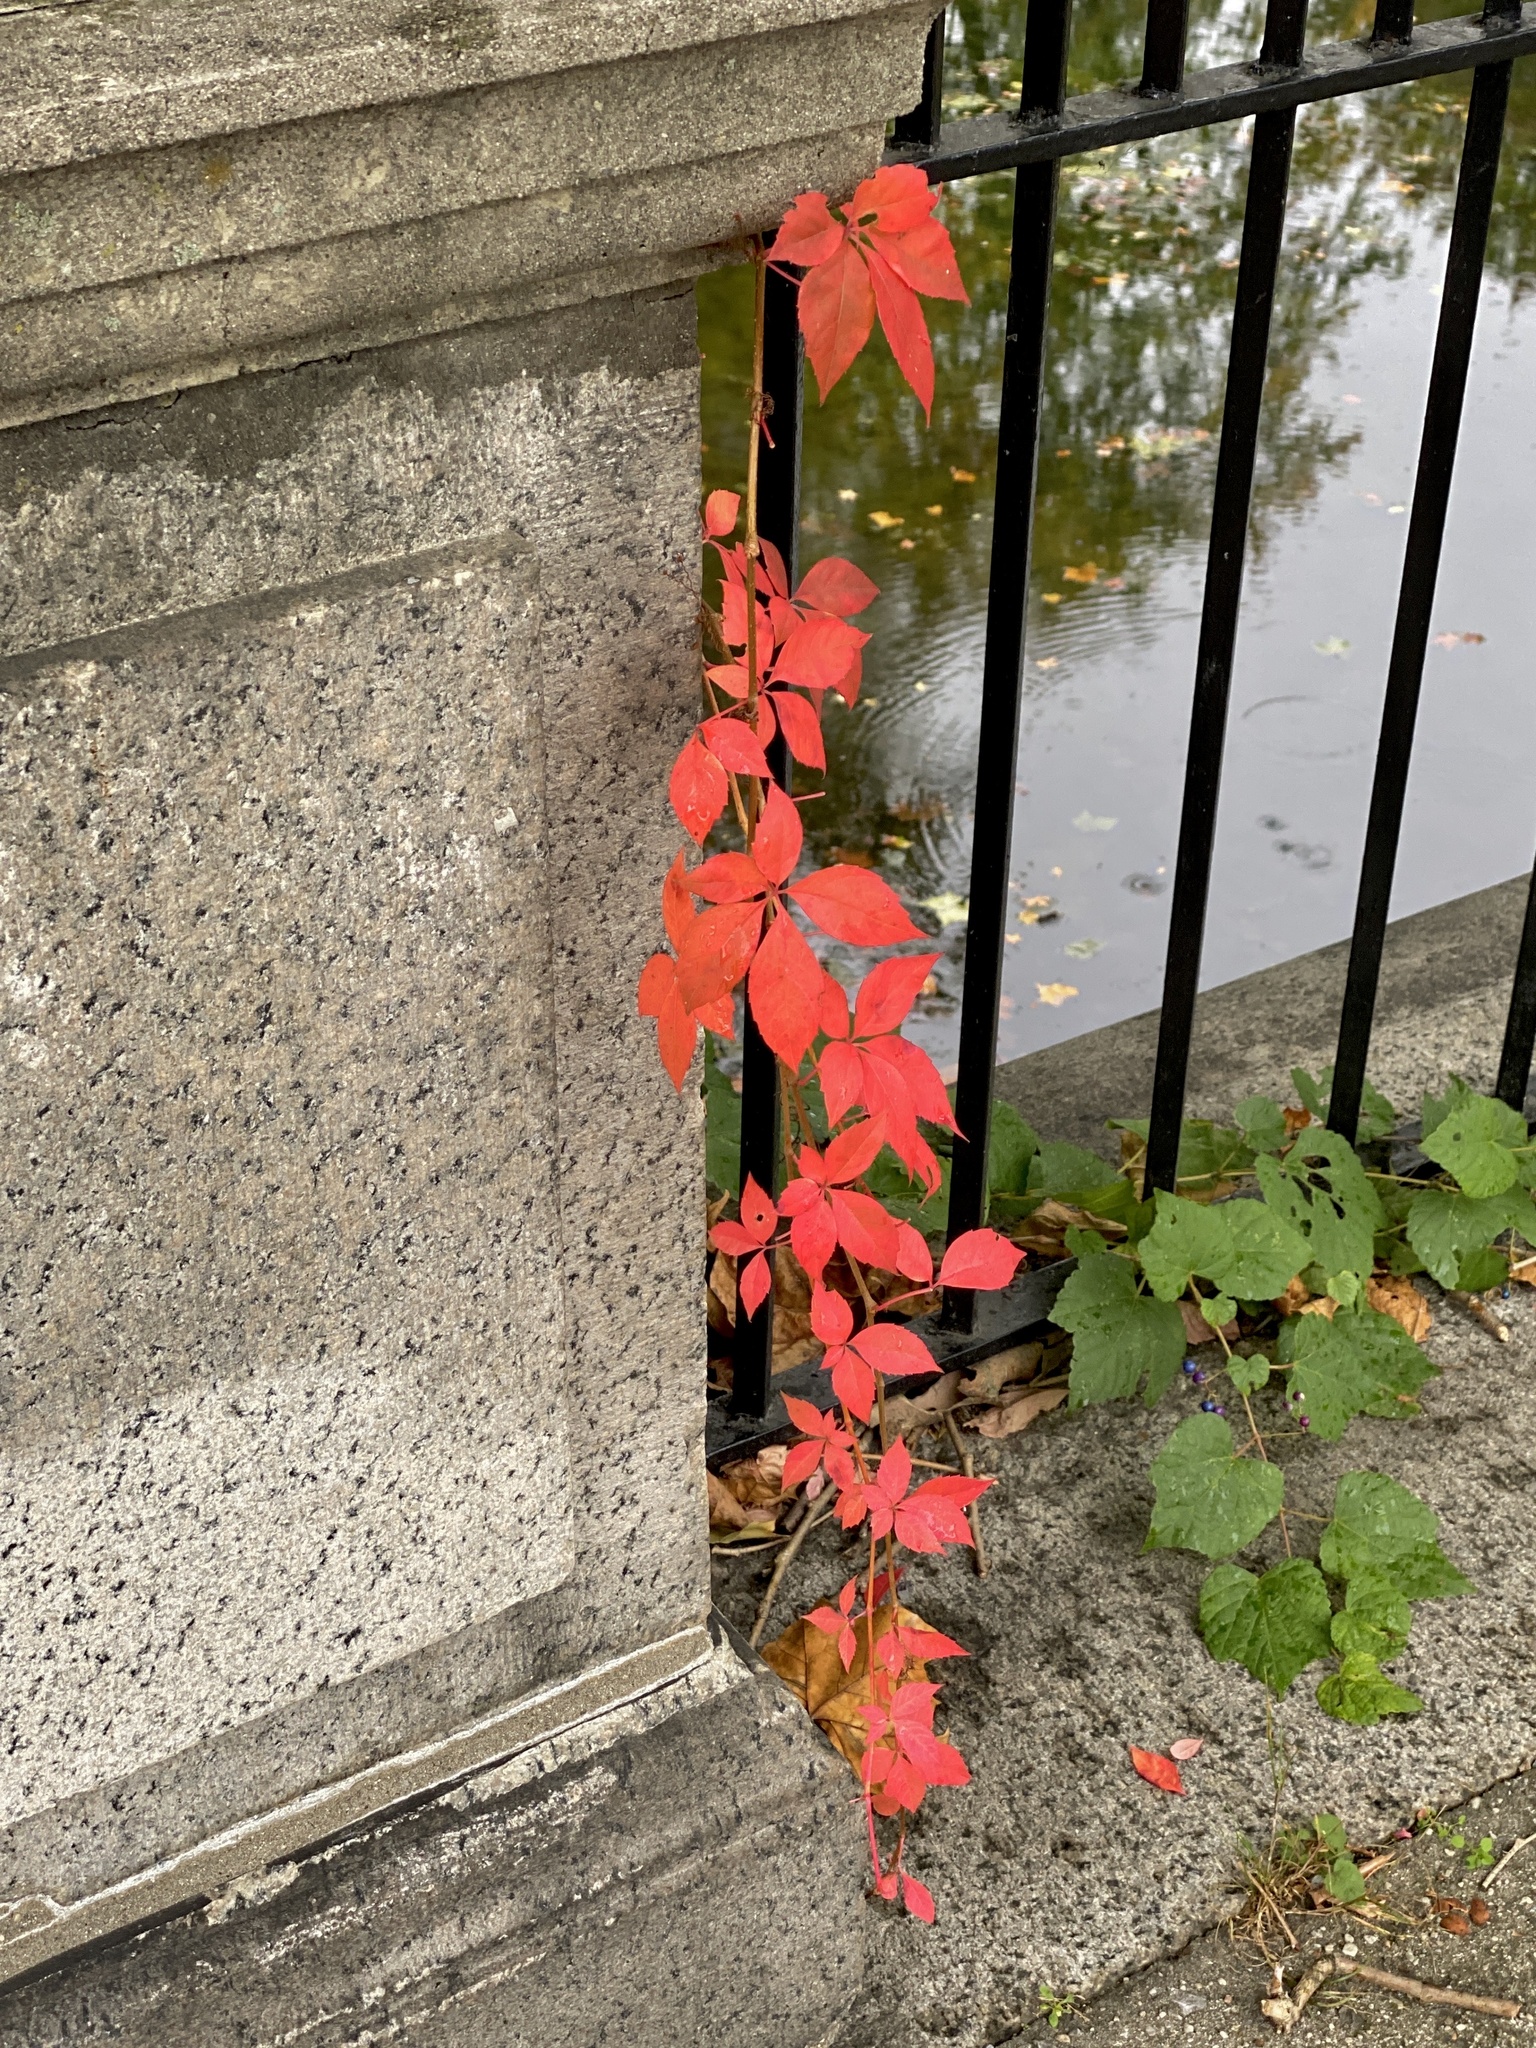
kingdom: Plantae
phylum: Tracheophyta
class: Magnoliopsida
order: Vitales
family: Vitaceae
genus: Parthenocissus
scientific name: Parthenocissus quinquefolia
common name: Virginia-creeper
